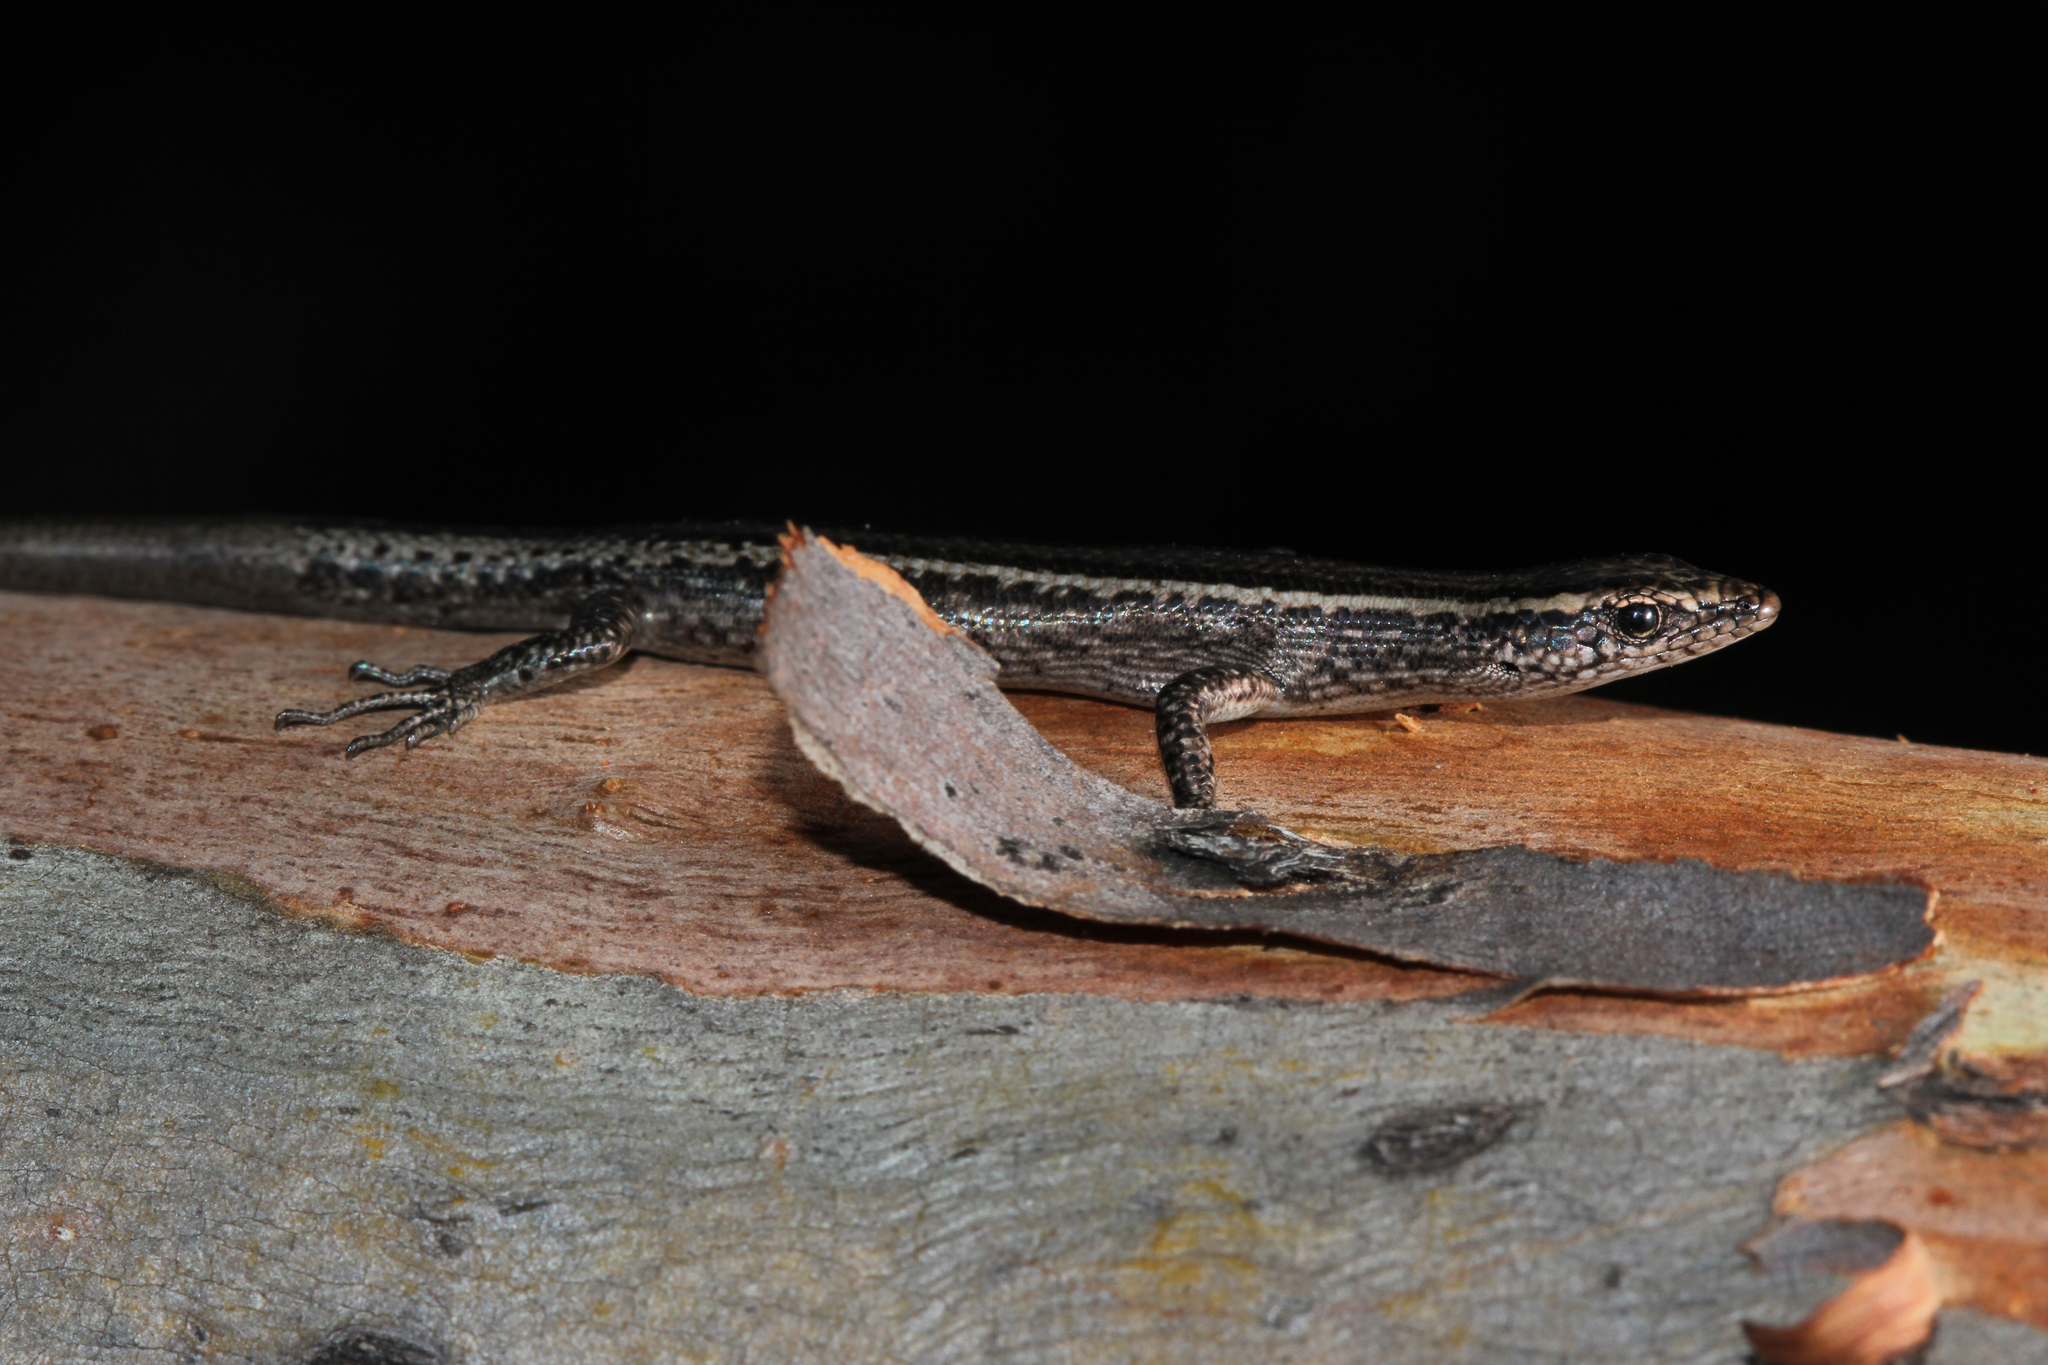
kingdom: Animalia
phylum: Chordata
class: Squamata
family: Scincidae
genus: Cryptoblepharus
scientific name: Cryptoblepharus pulcher
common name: Elegant snake-eyed skink
